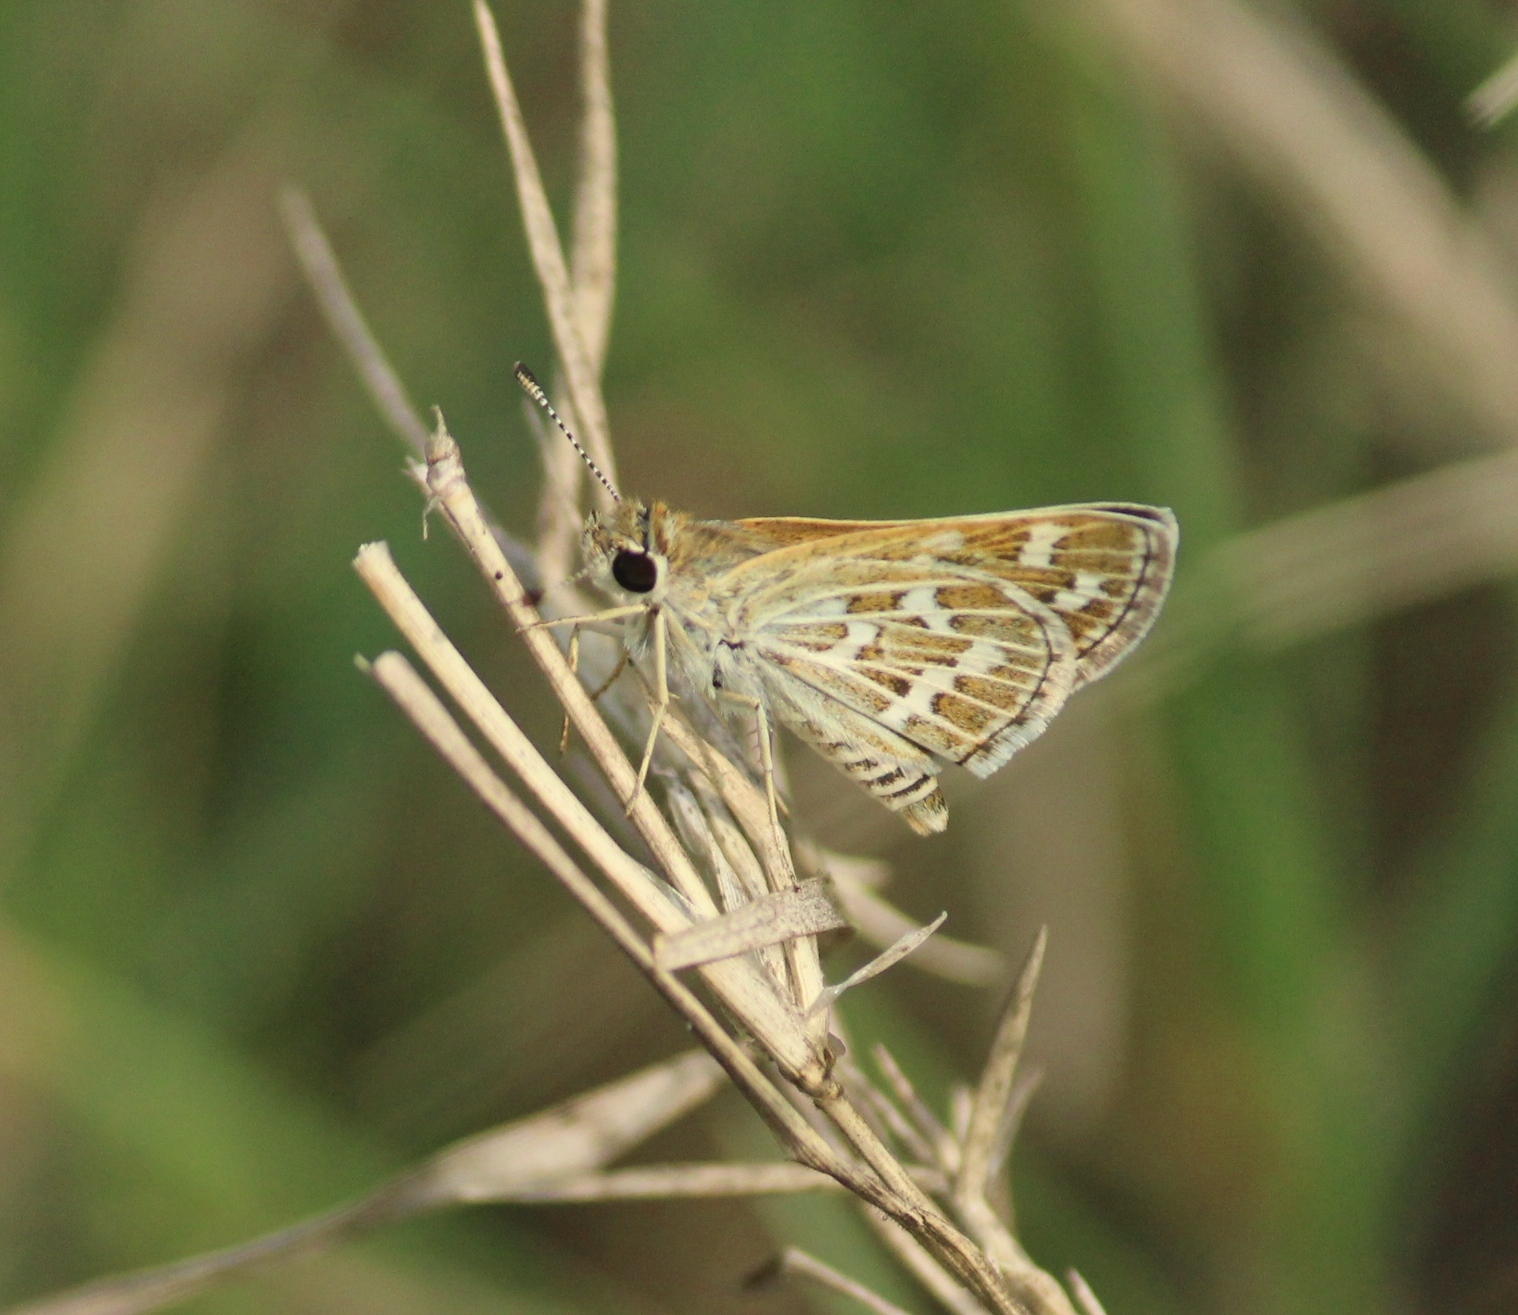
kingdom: Animalia
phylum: Arthropoda
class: Insecta
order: Lepidoptera
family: Hesperiidae
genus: Taractrocera
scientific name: Taractrocera maevius
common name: Common grass-dart
